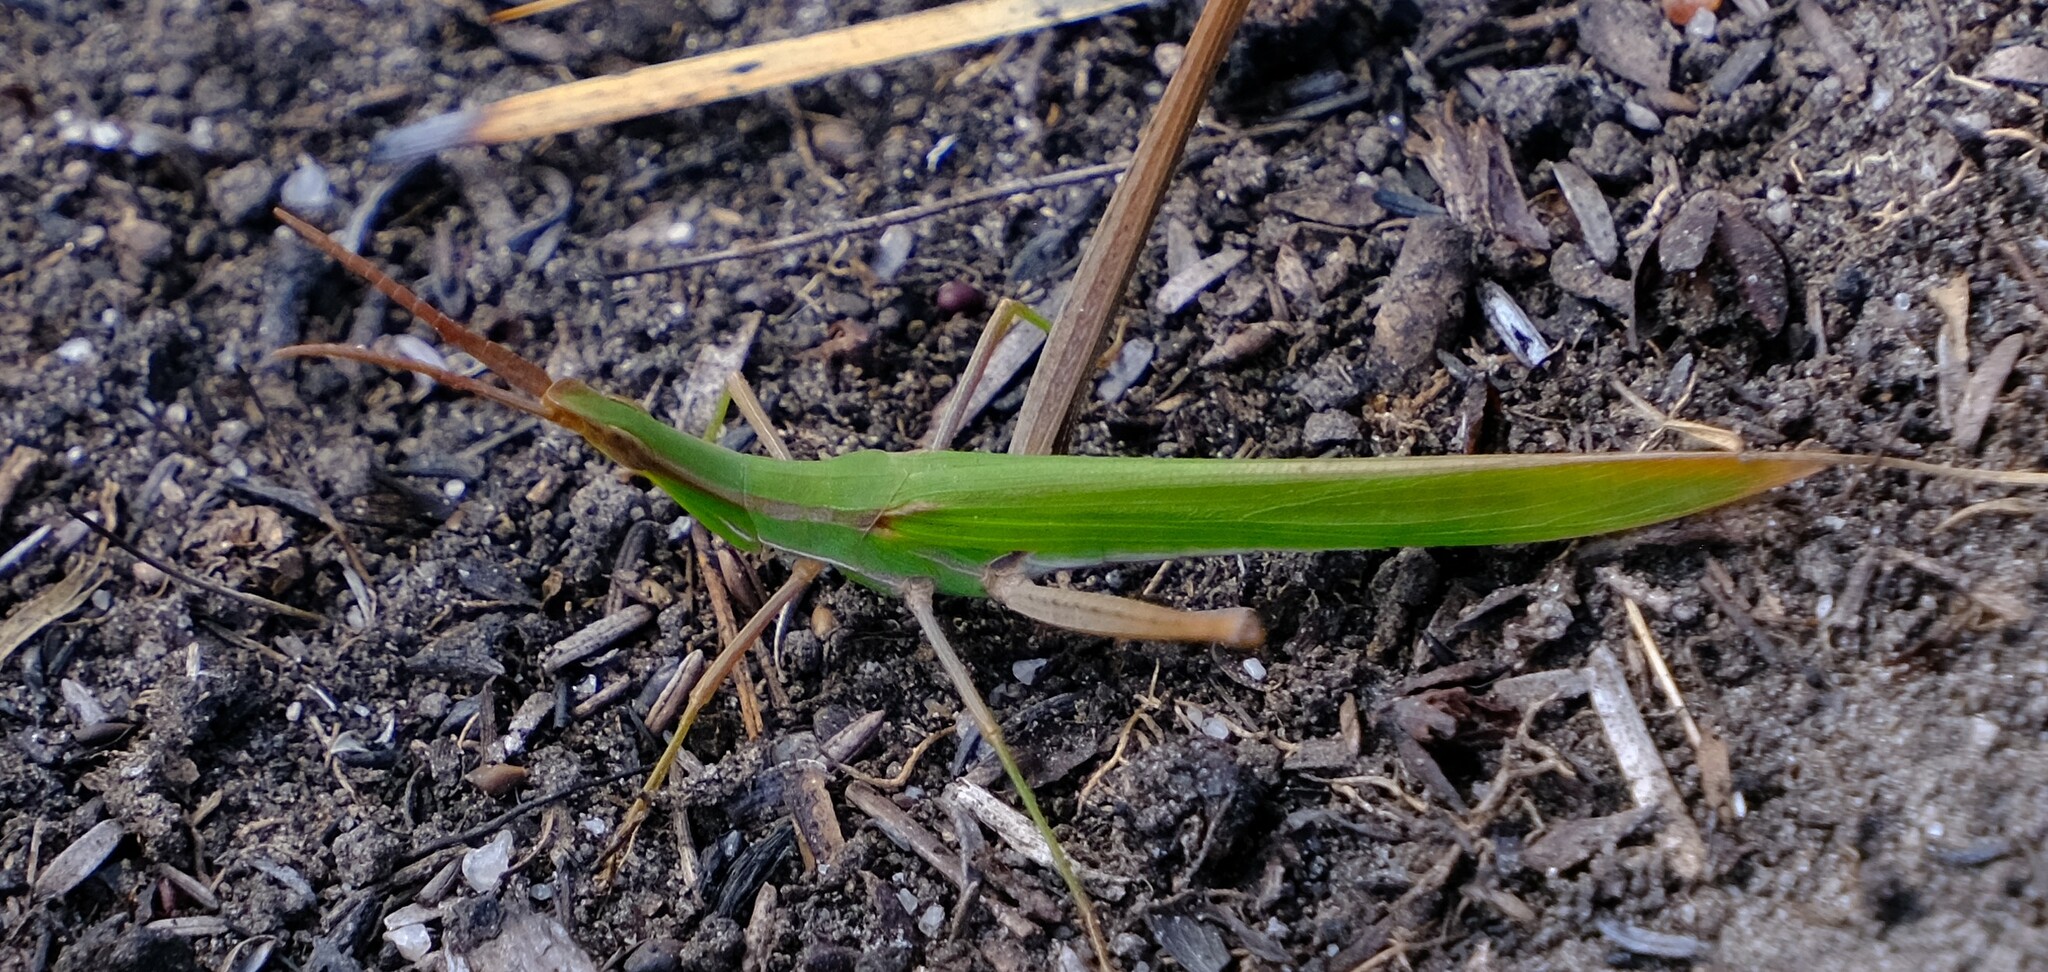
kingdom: Animalia
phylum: Arthropoda
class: Insecta
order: Orthoptera
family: Acrididae
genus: Acrida
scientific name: Acrida conica
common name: Giant green slantface
